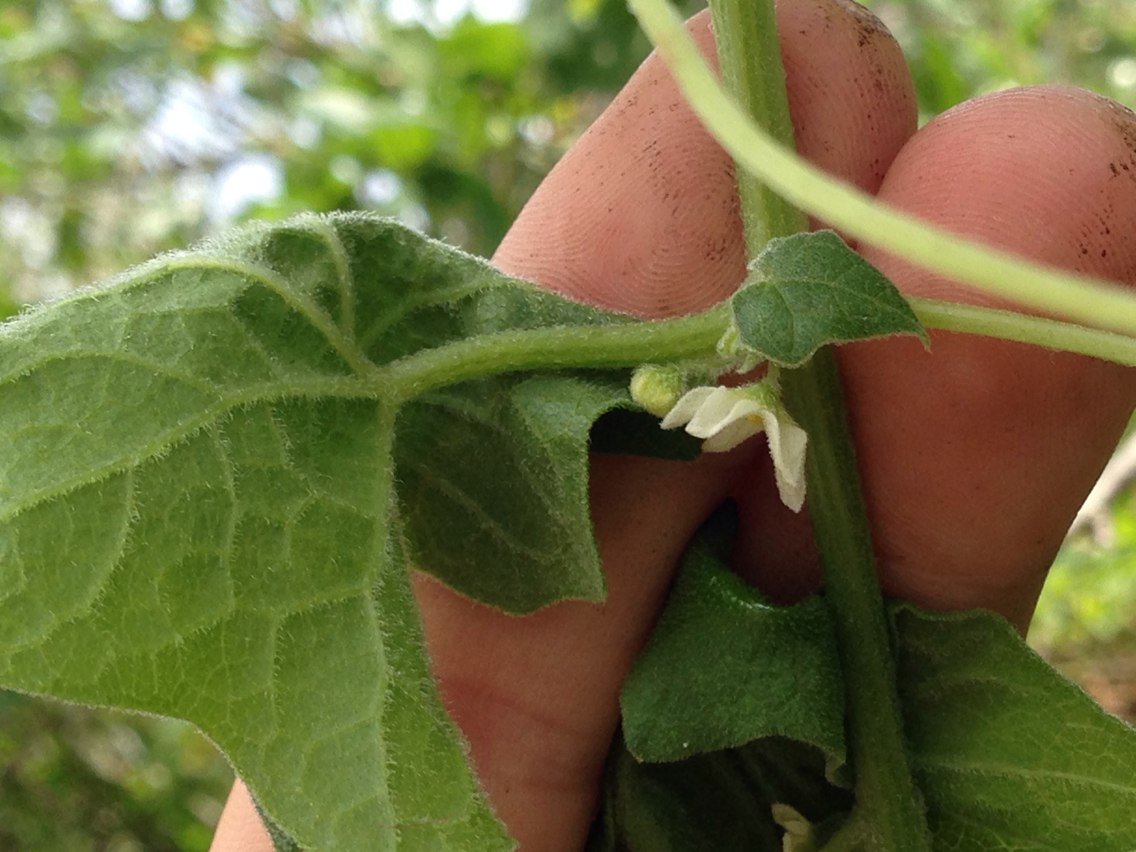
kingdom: Plantae
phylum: Tracheophyta
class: Magnoliopsida
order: Cucurbitales
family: Cucurbitaceae
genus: Marah
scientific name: Marah fabacea
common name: California manroot
